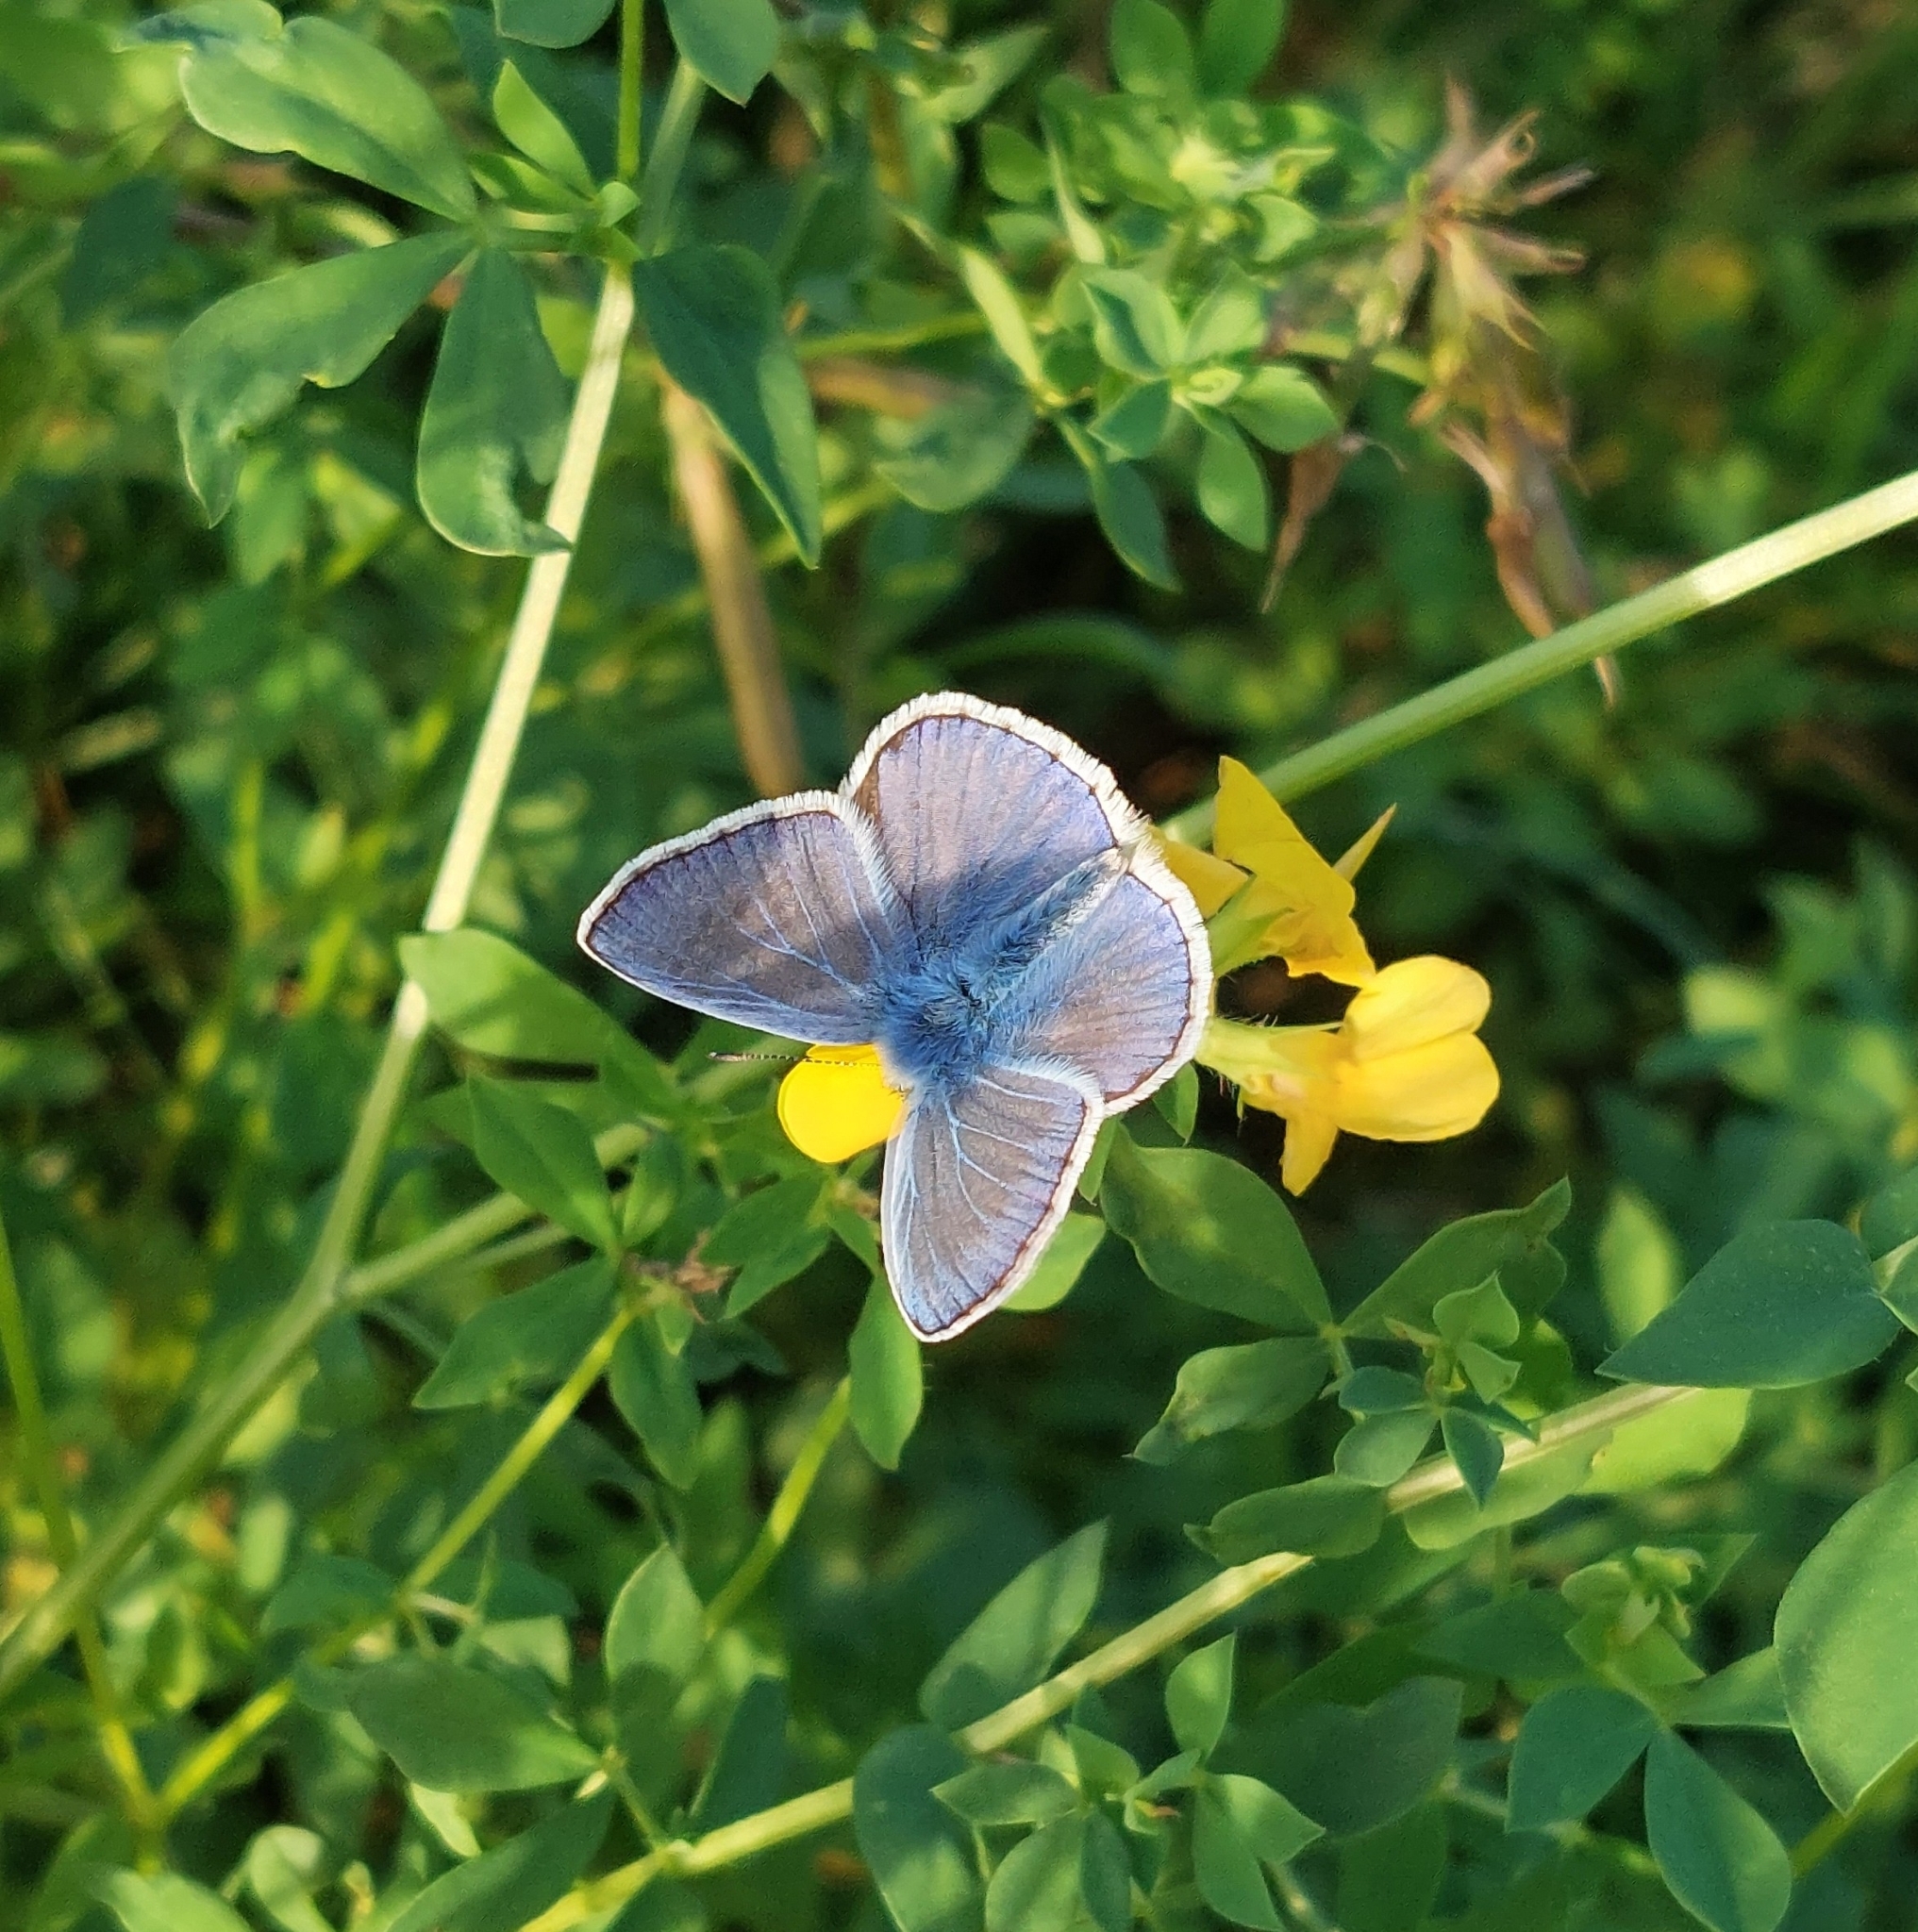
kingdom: Animalia
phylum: Arthropoda
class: Insecta
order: Lepidoptera
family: Lycaenidae
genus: Polyommatus
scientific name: Polyommatus icarus
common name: Common blue
